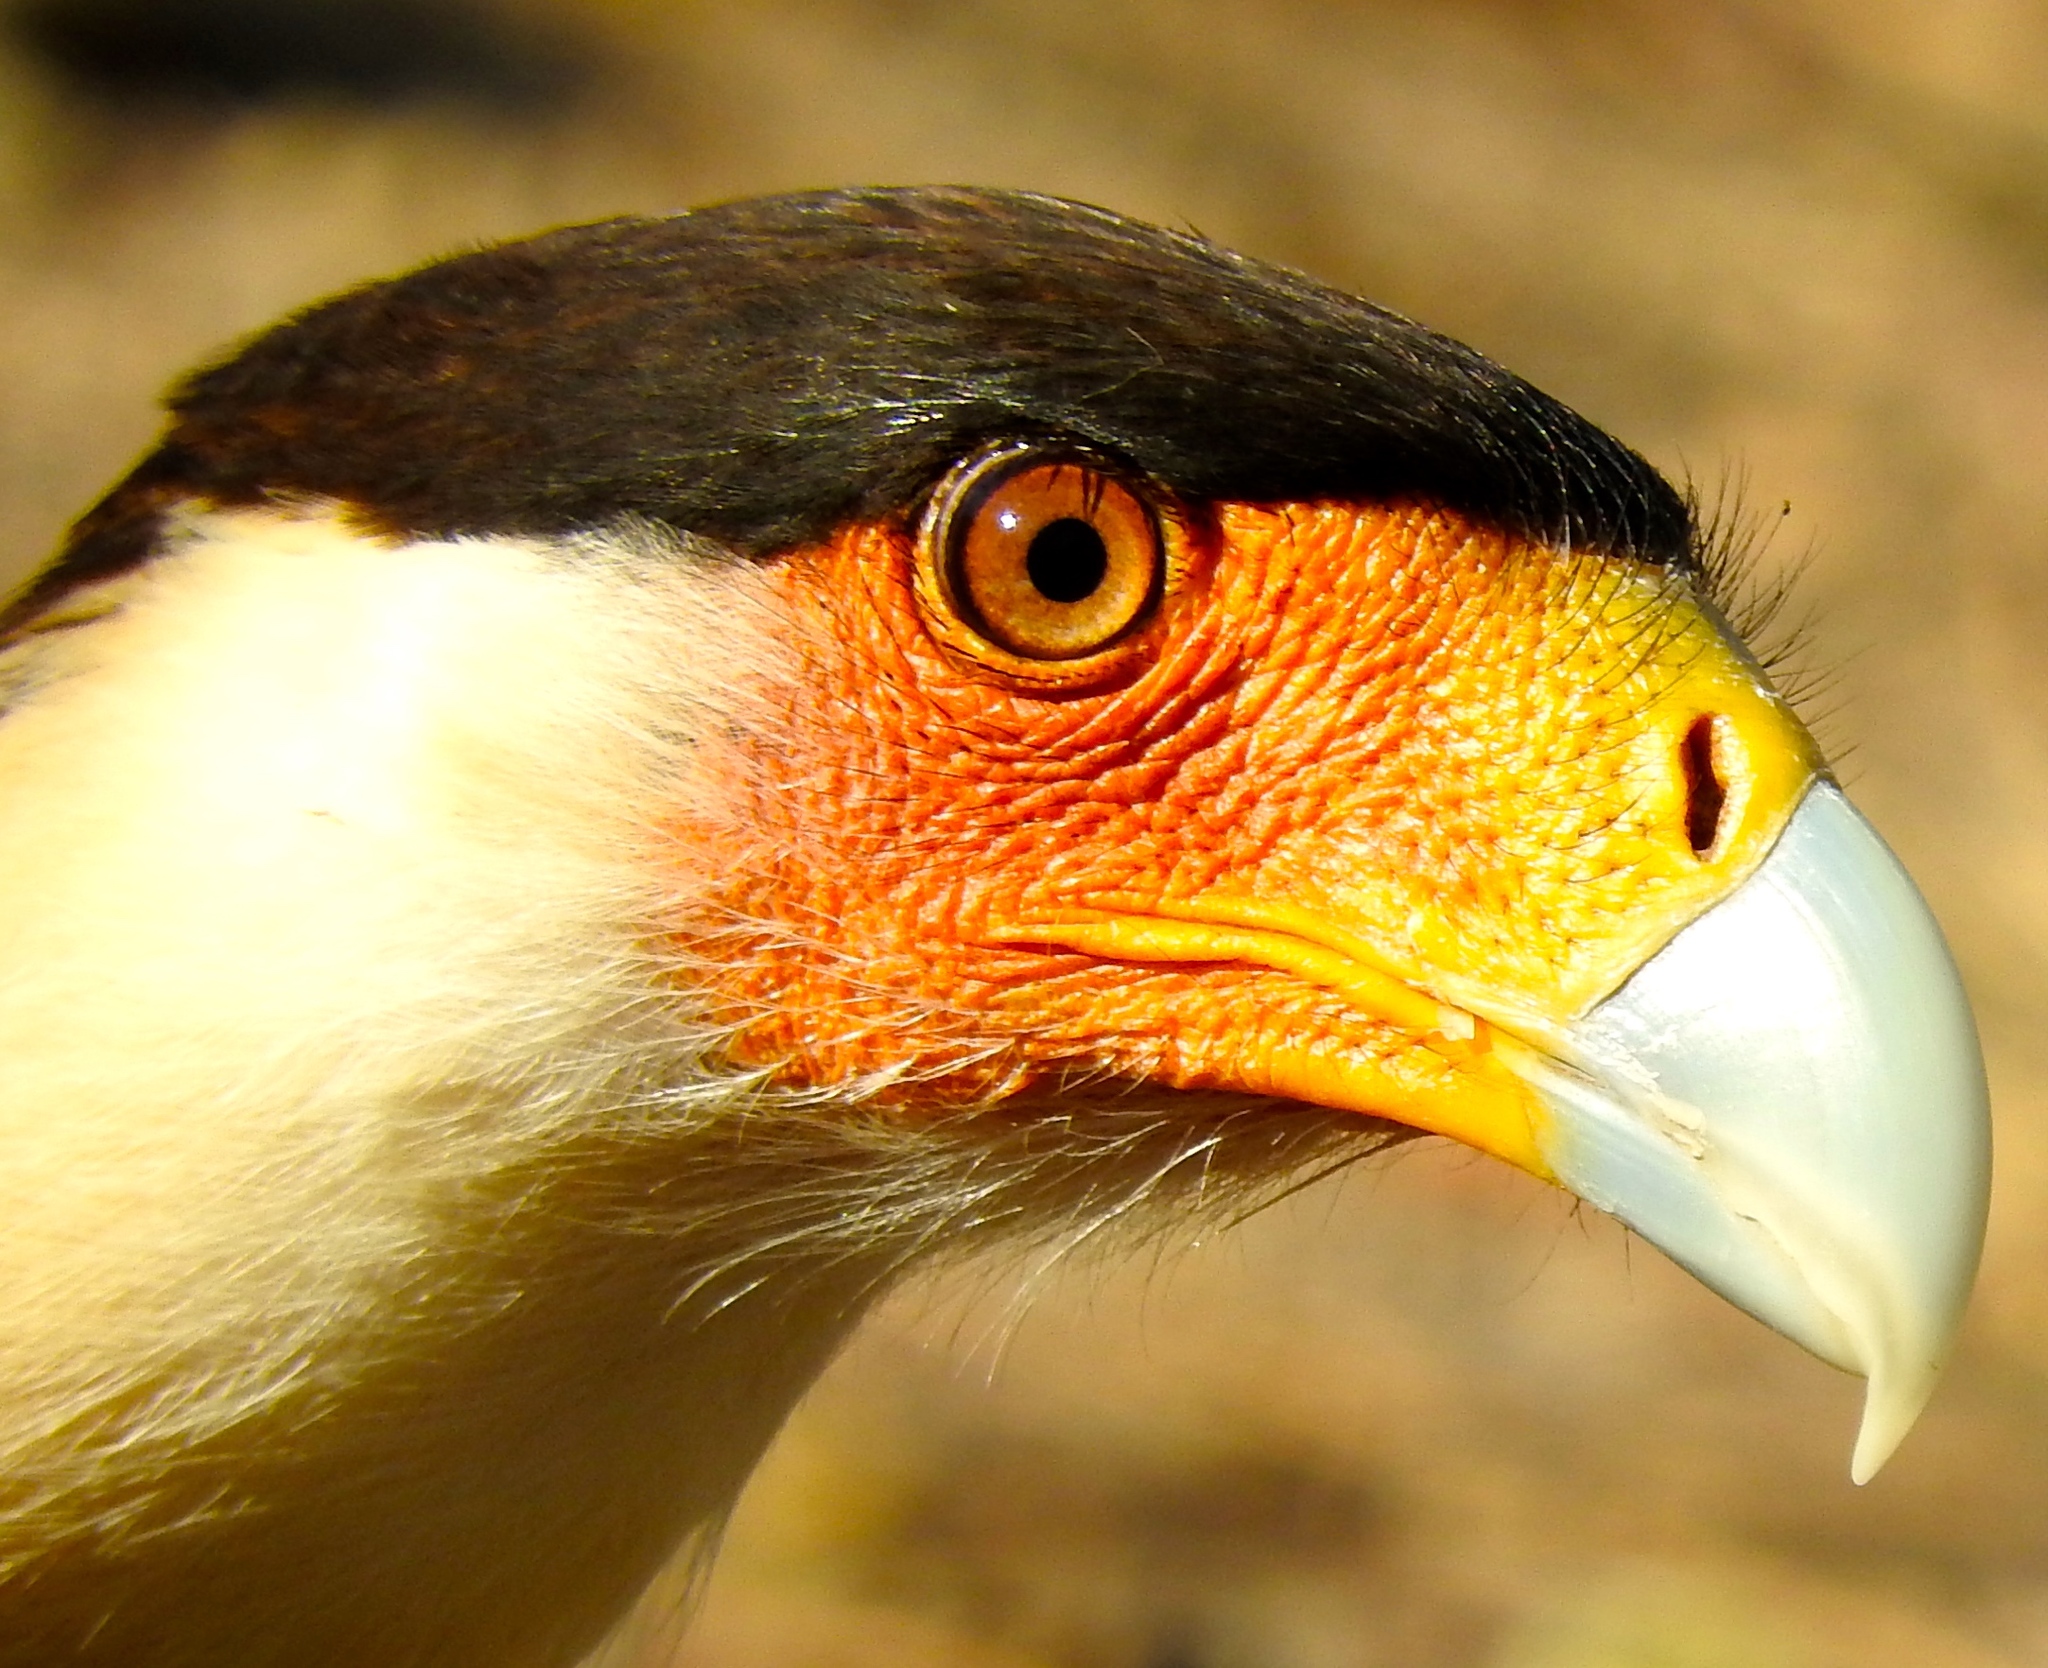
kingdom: Animalia
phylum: Chordata
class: Aves
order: Falconiformes
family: Falconidae
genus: Caracara
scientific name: Caracara plancus
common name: Southern caracara
